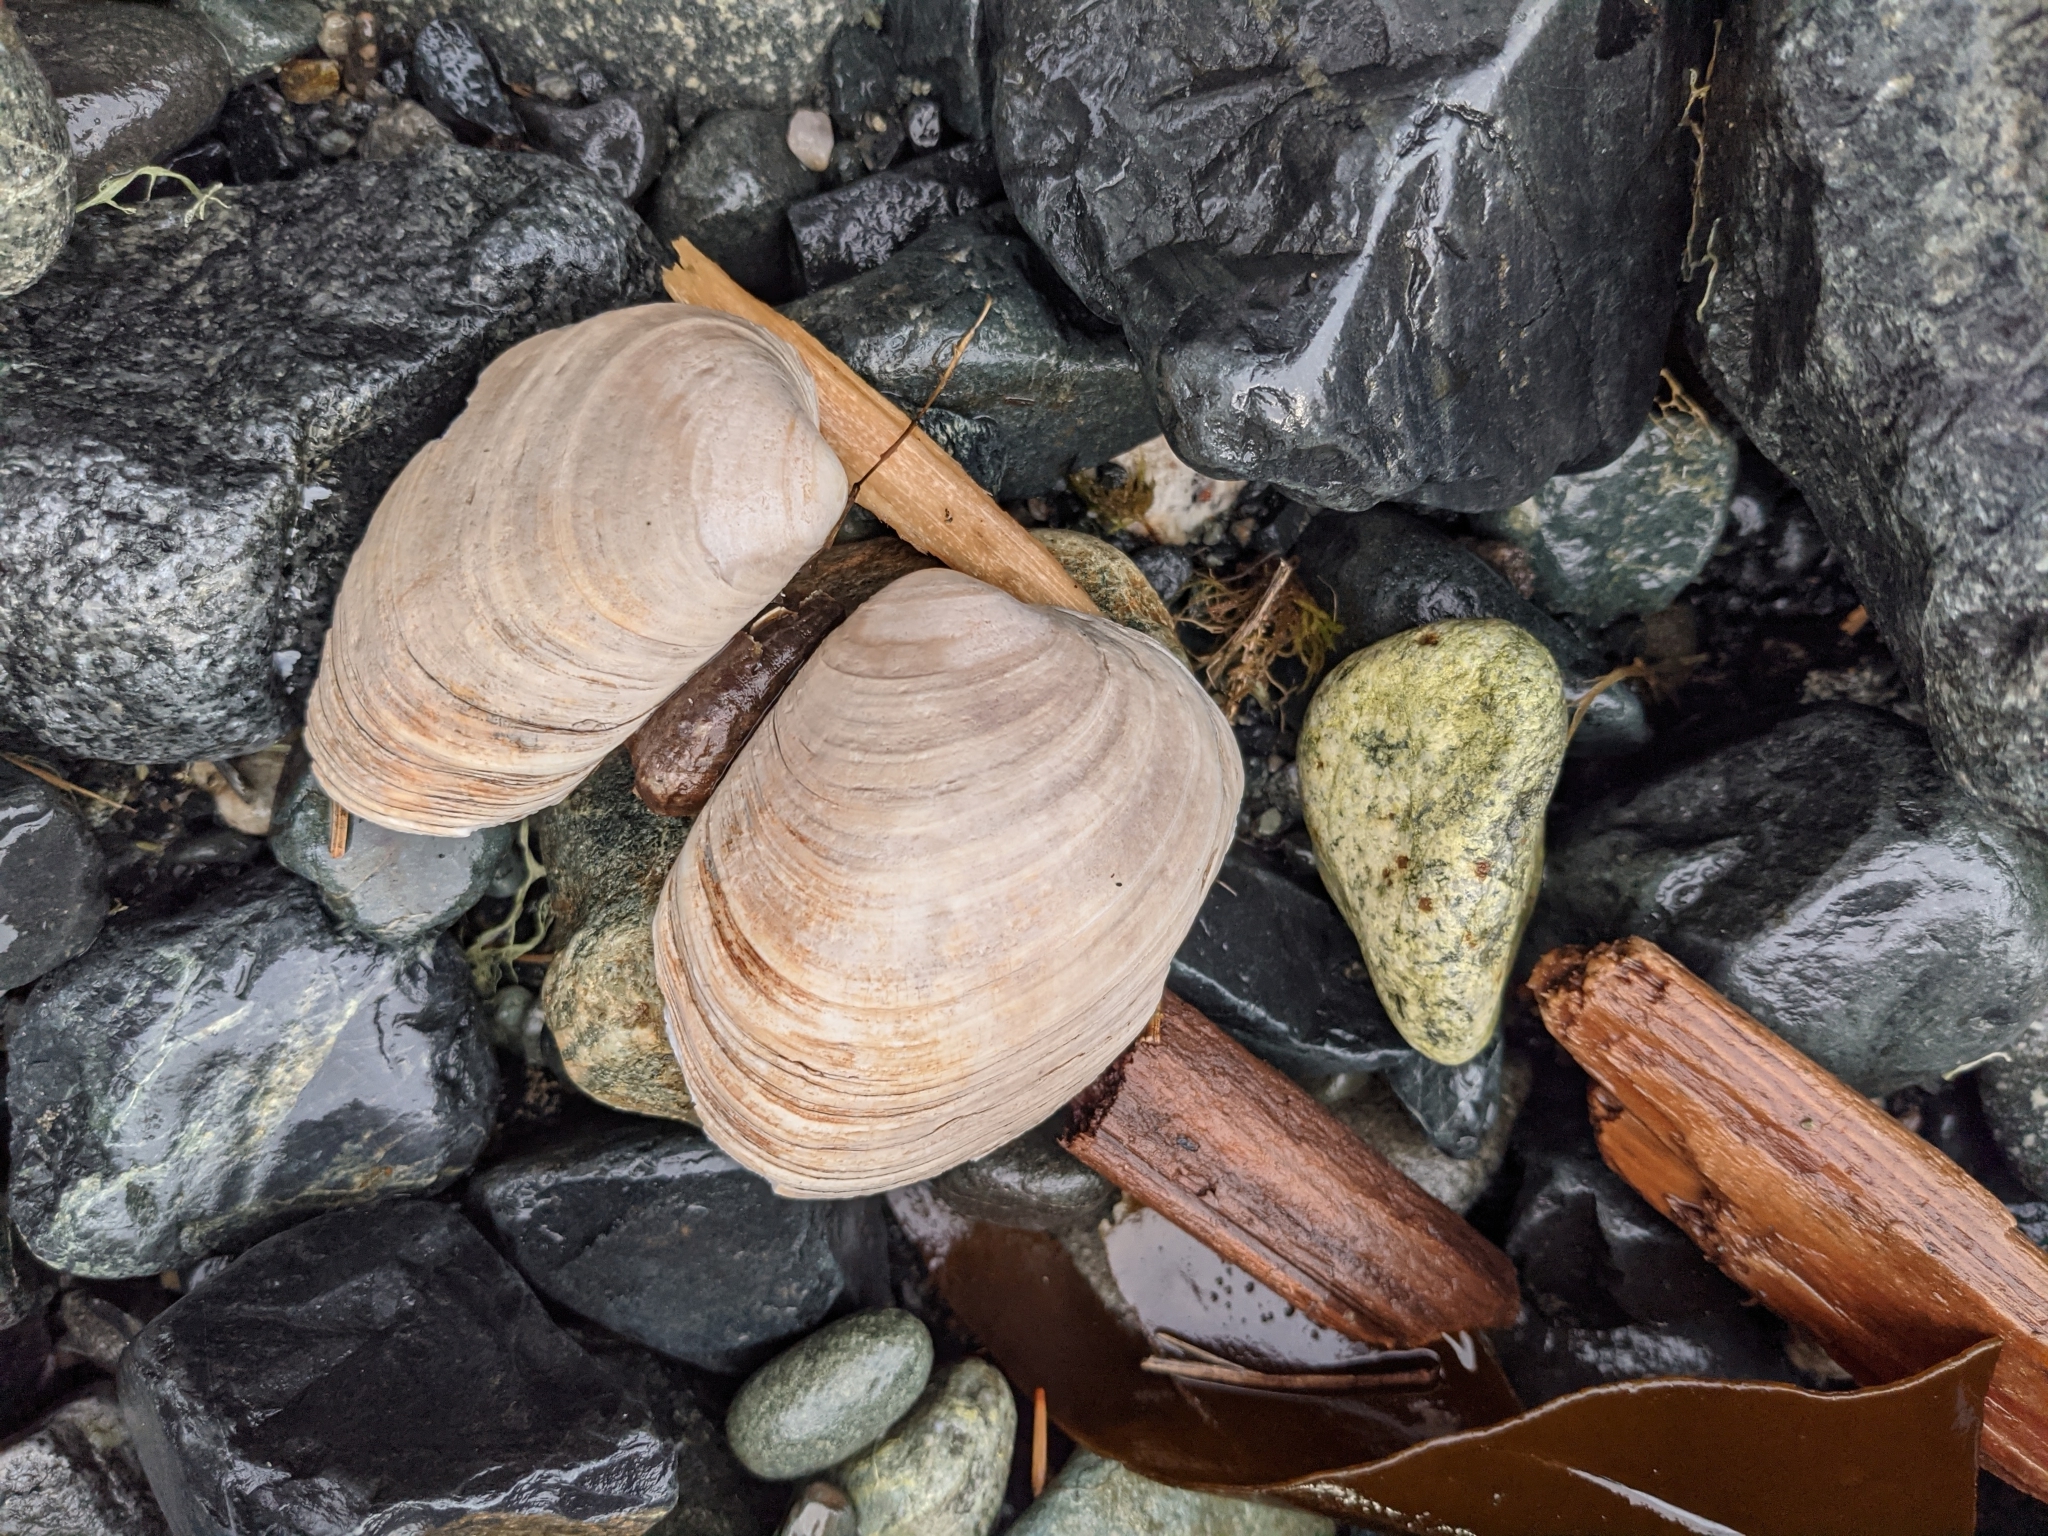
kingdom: Animalia
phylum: Mollusca
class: Bivalvia
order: Venerida
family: Veneridae
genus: Saxidomus
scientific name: Saxidomus gigantea
